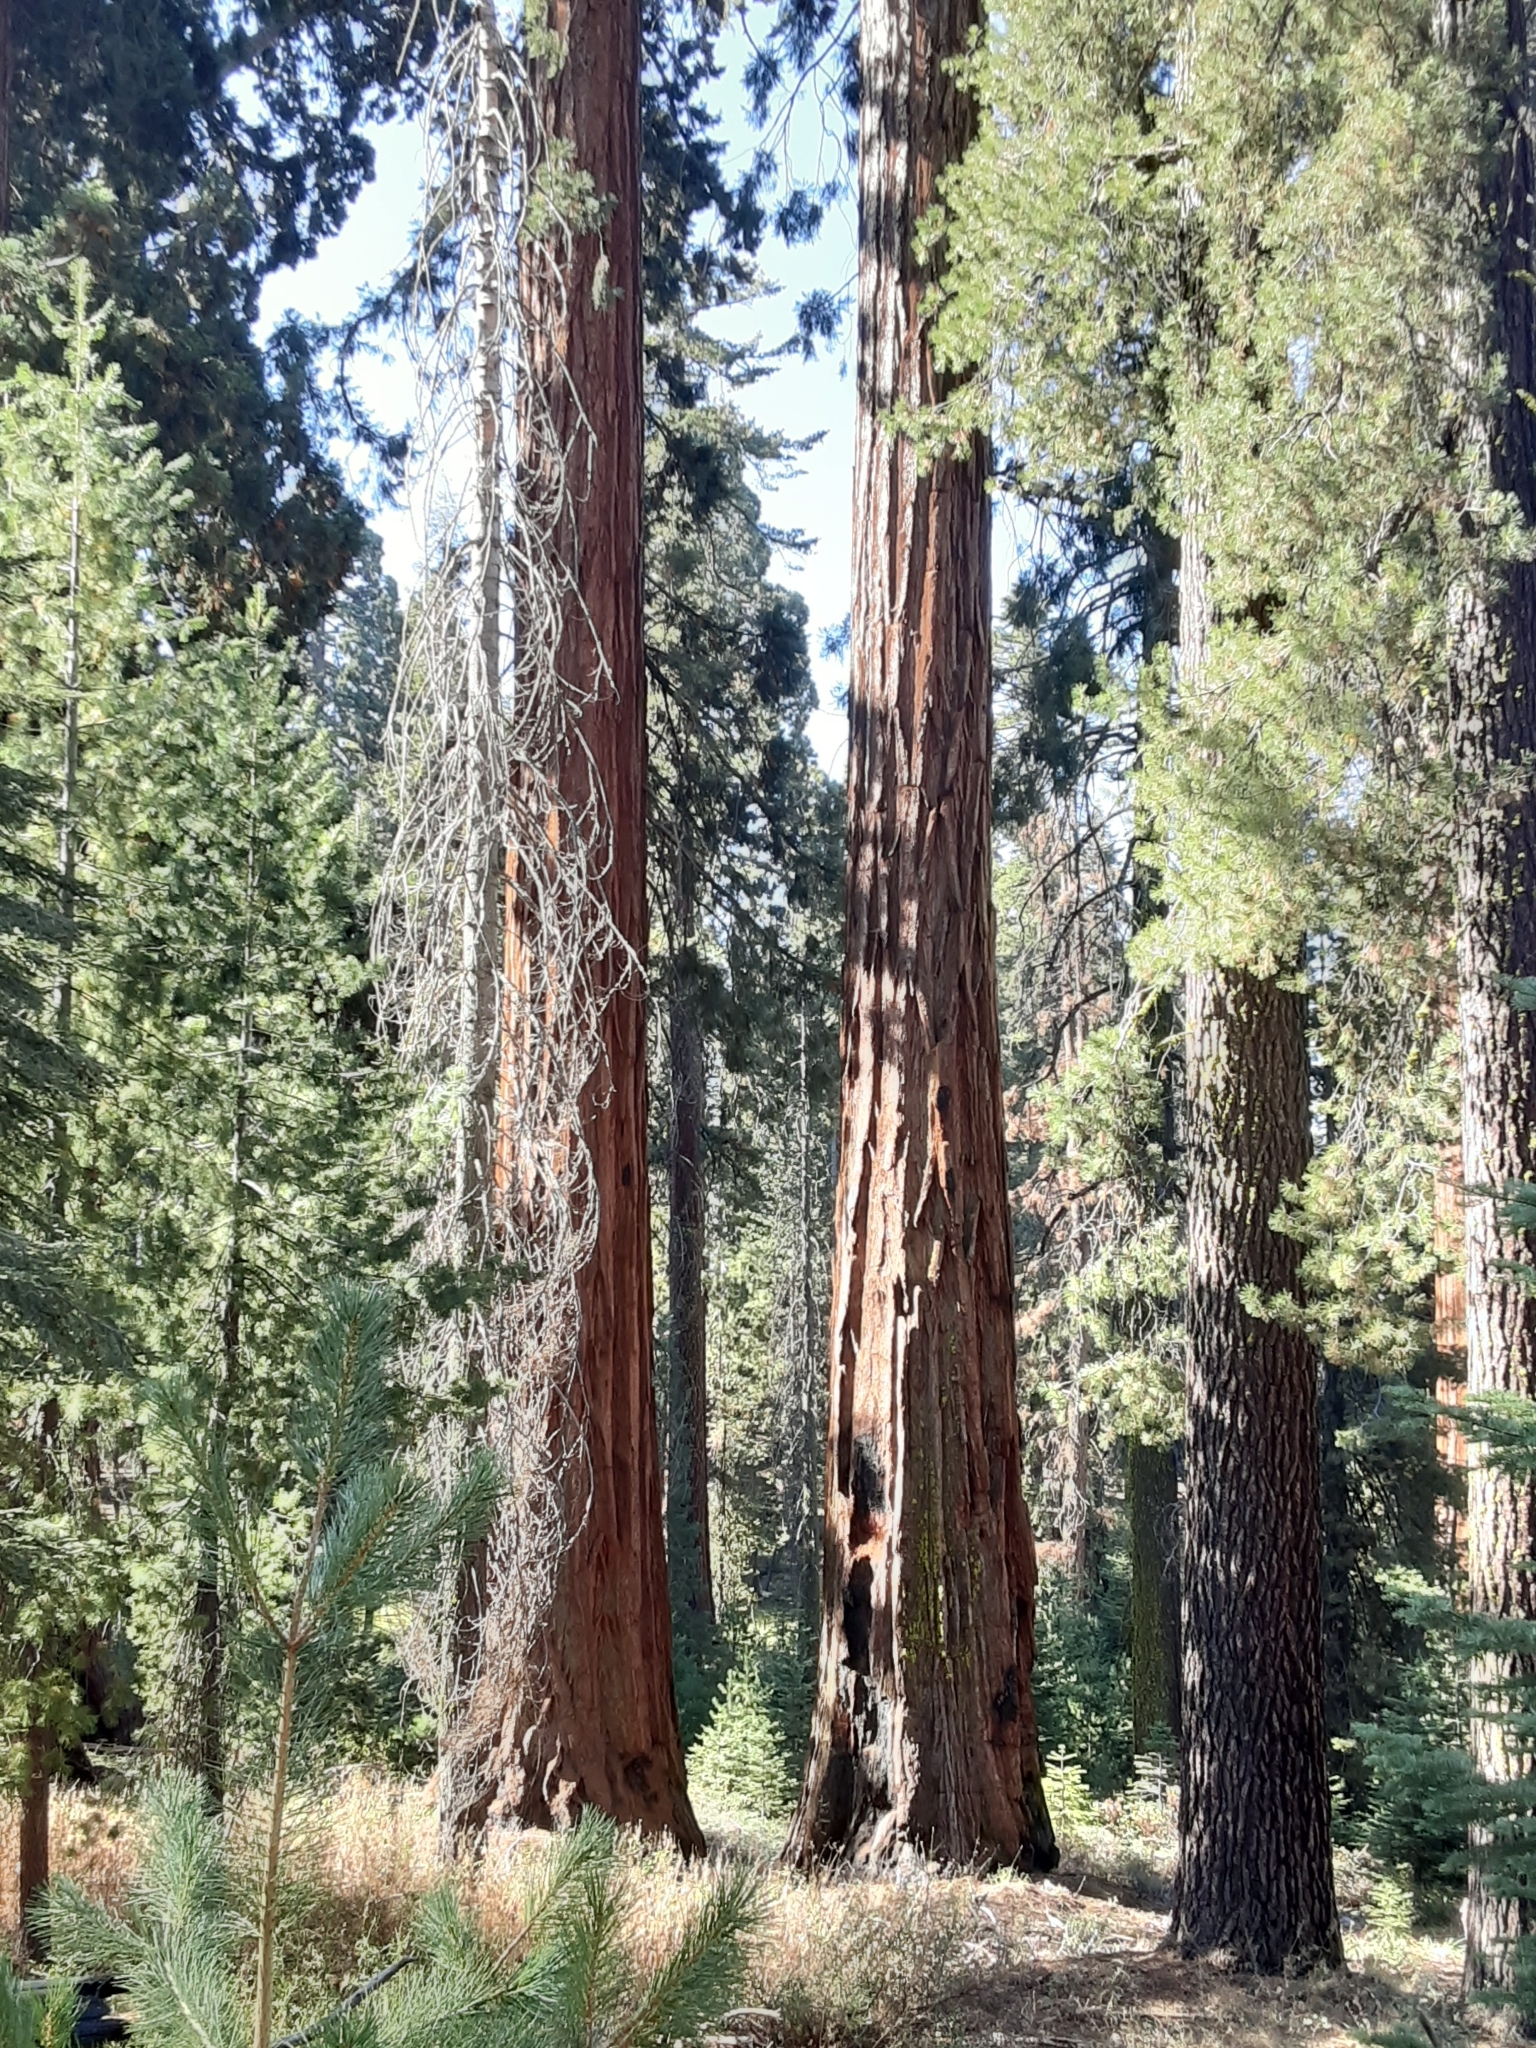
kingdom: Plantae
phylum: Tracheophyta
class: Pinopsida
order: Pinales
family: Cupressaceae
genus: Sequoiadendron
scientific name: Sequoiadendron giganteum
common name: Wellingtonia
